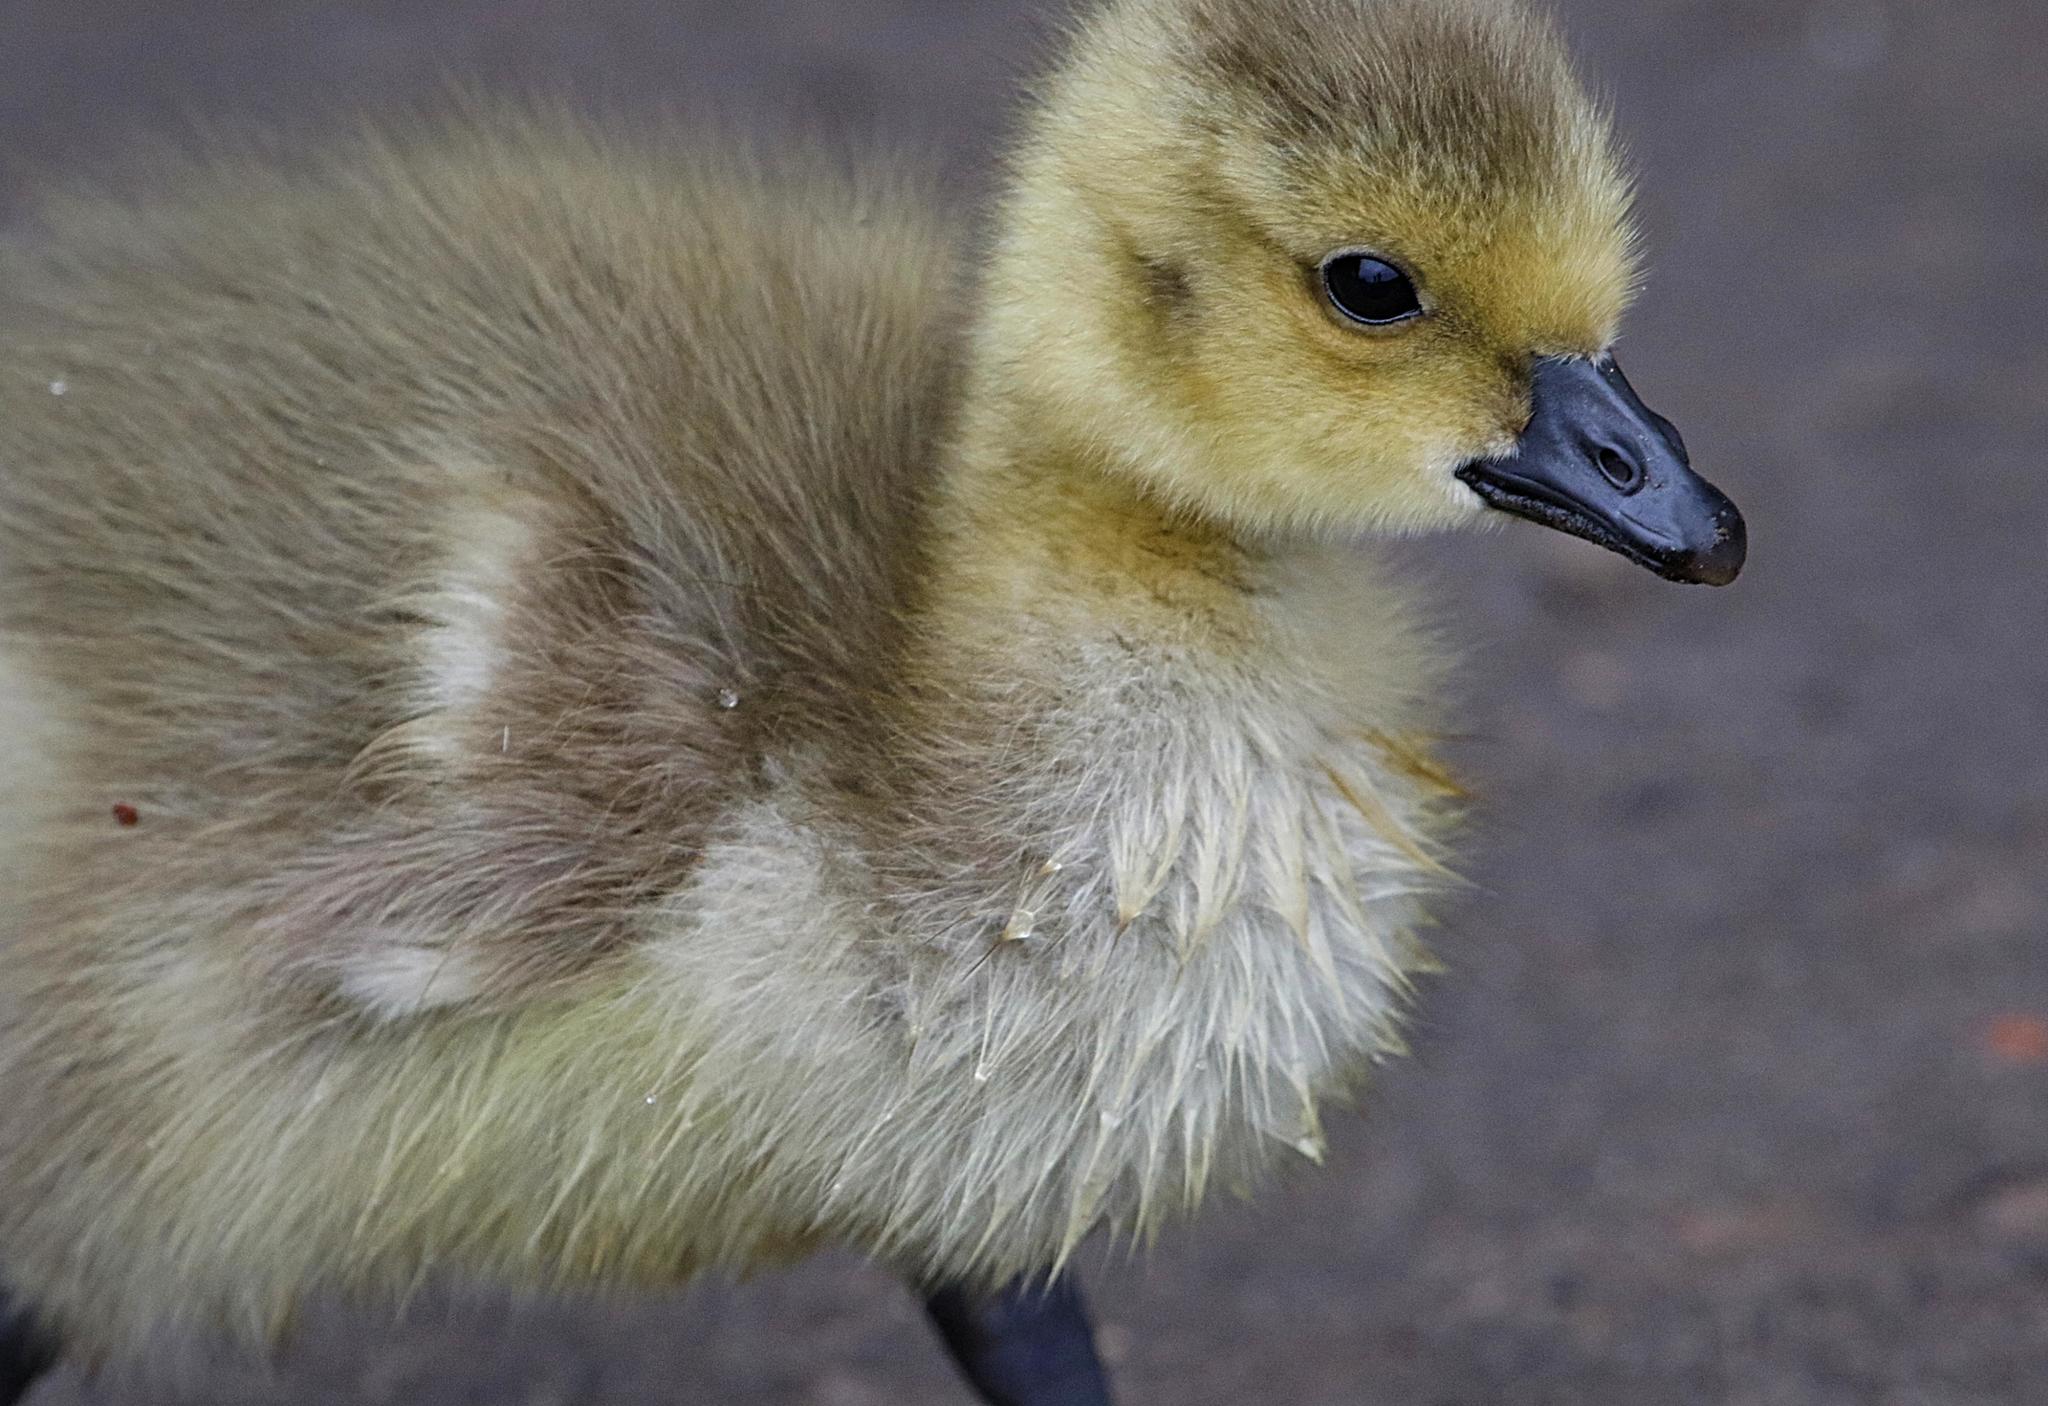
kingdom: Animalia
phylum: Chordata
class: Aves
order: Anseriformes
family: Anatidae
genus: Branta
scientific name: Branta canadensis
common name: Canada goose
